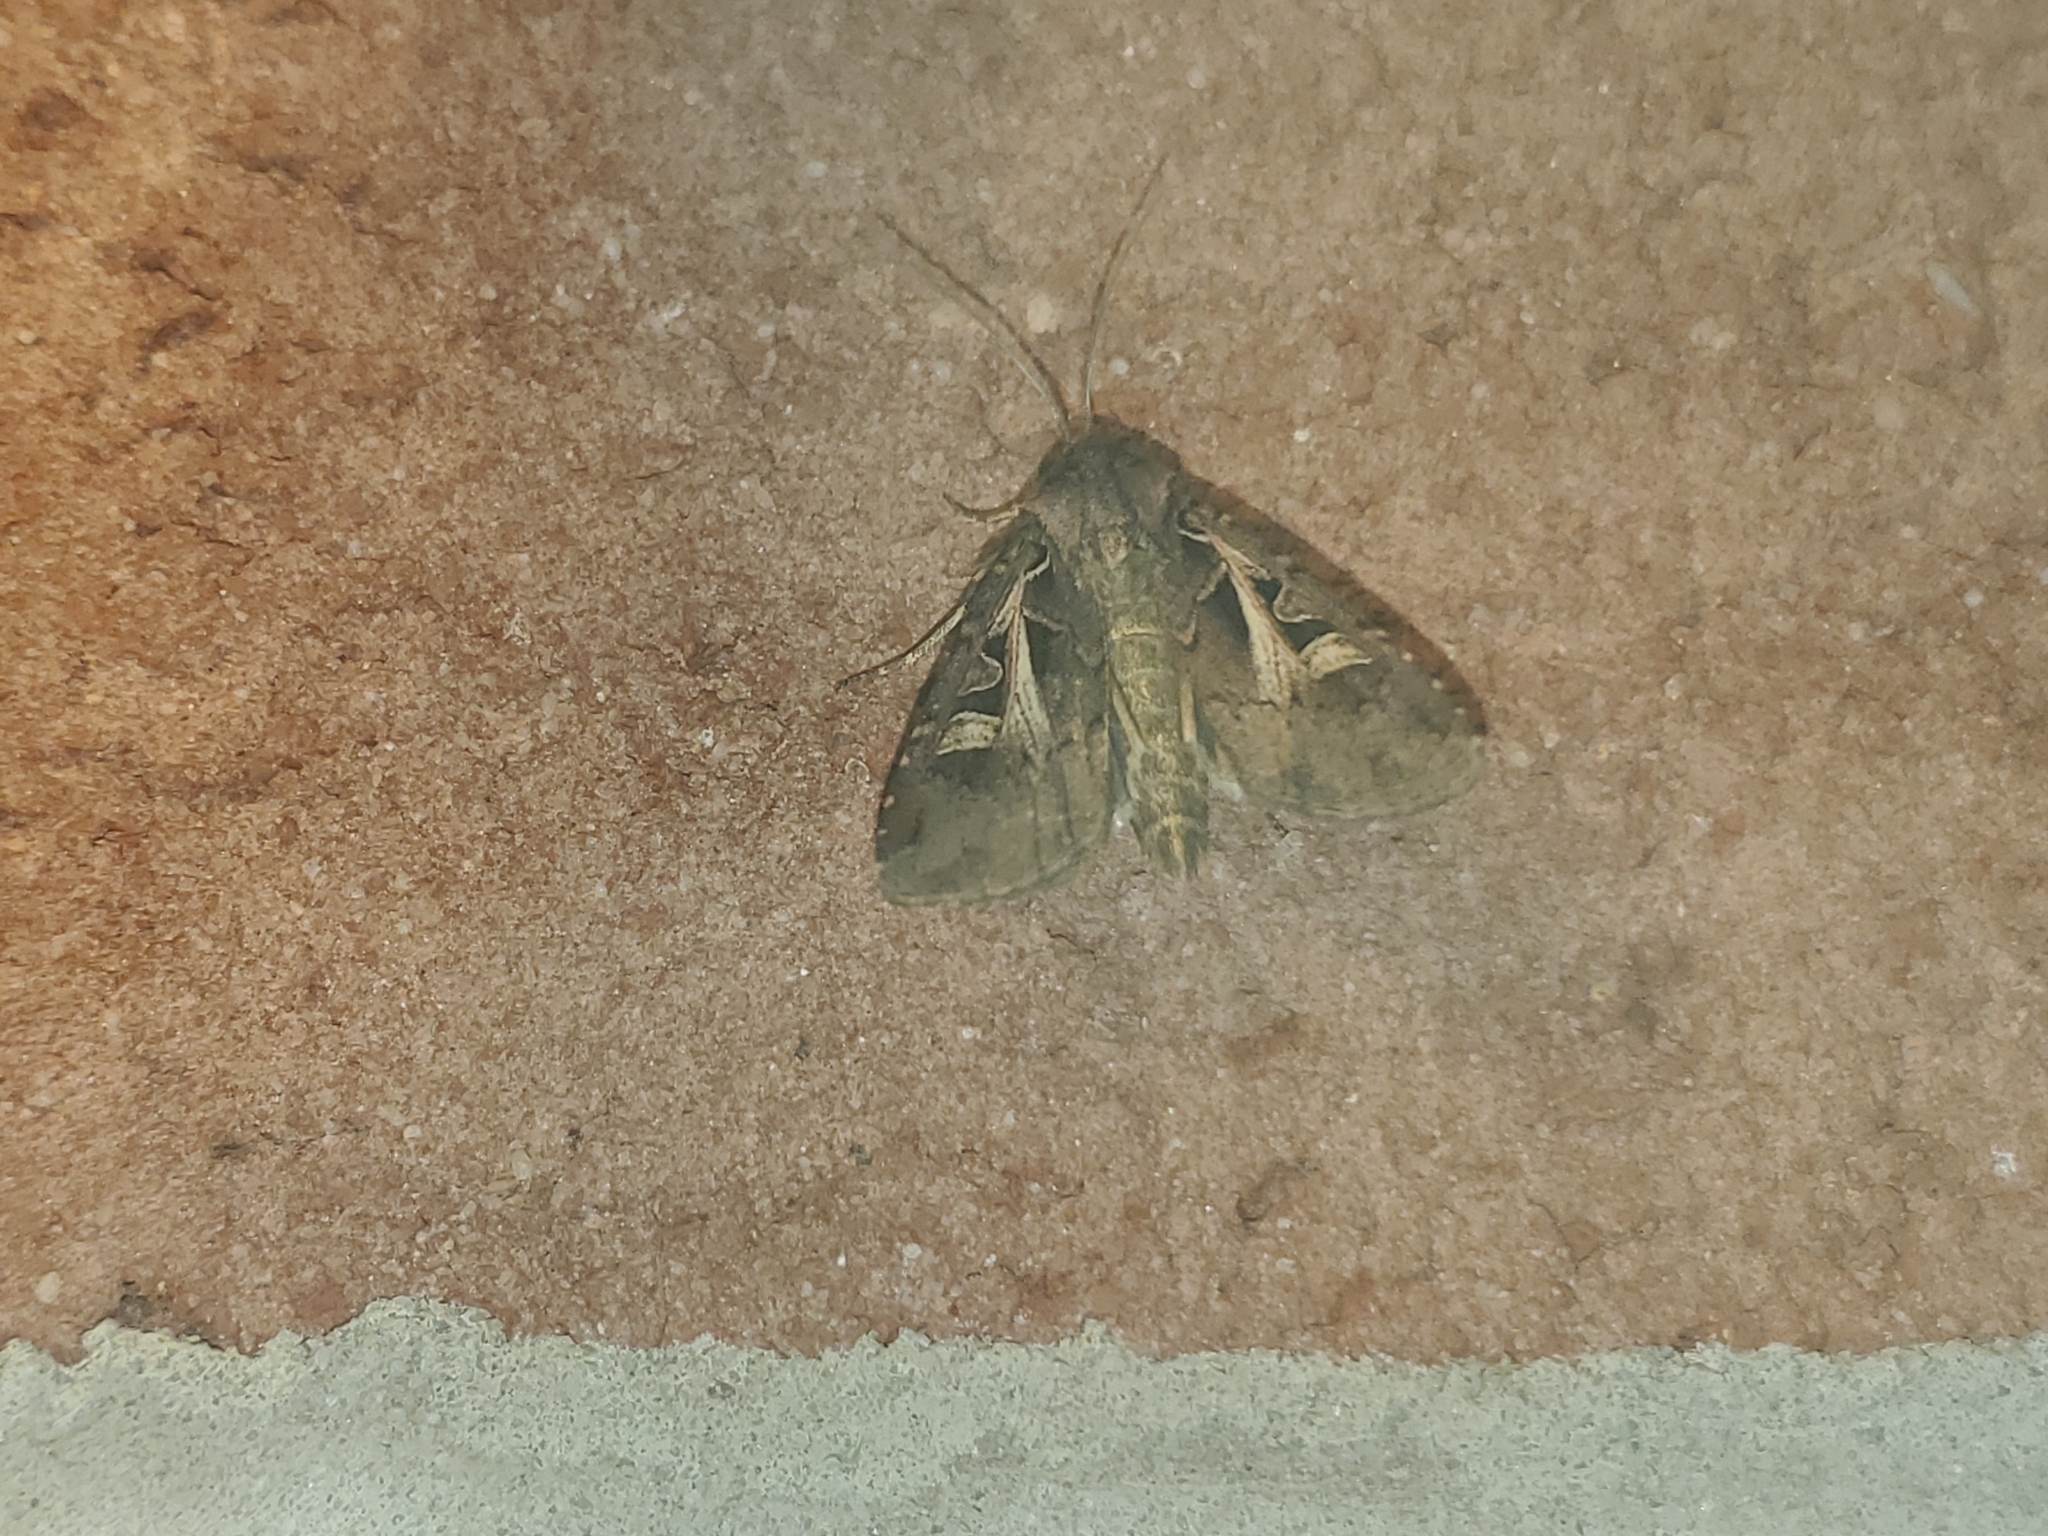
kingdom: Animalia
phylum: Arthropoda
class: Insecta
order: Lepidoptera
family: Noctuidae
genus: Feltia
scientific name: Feltia herilis
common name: Master's dart
